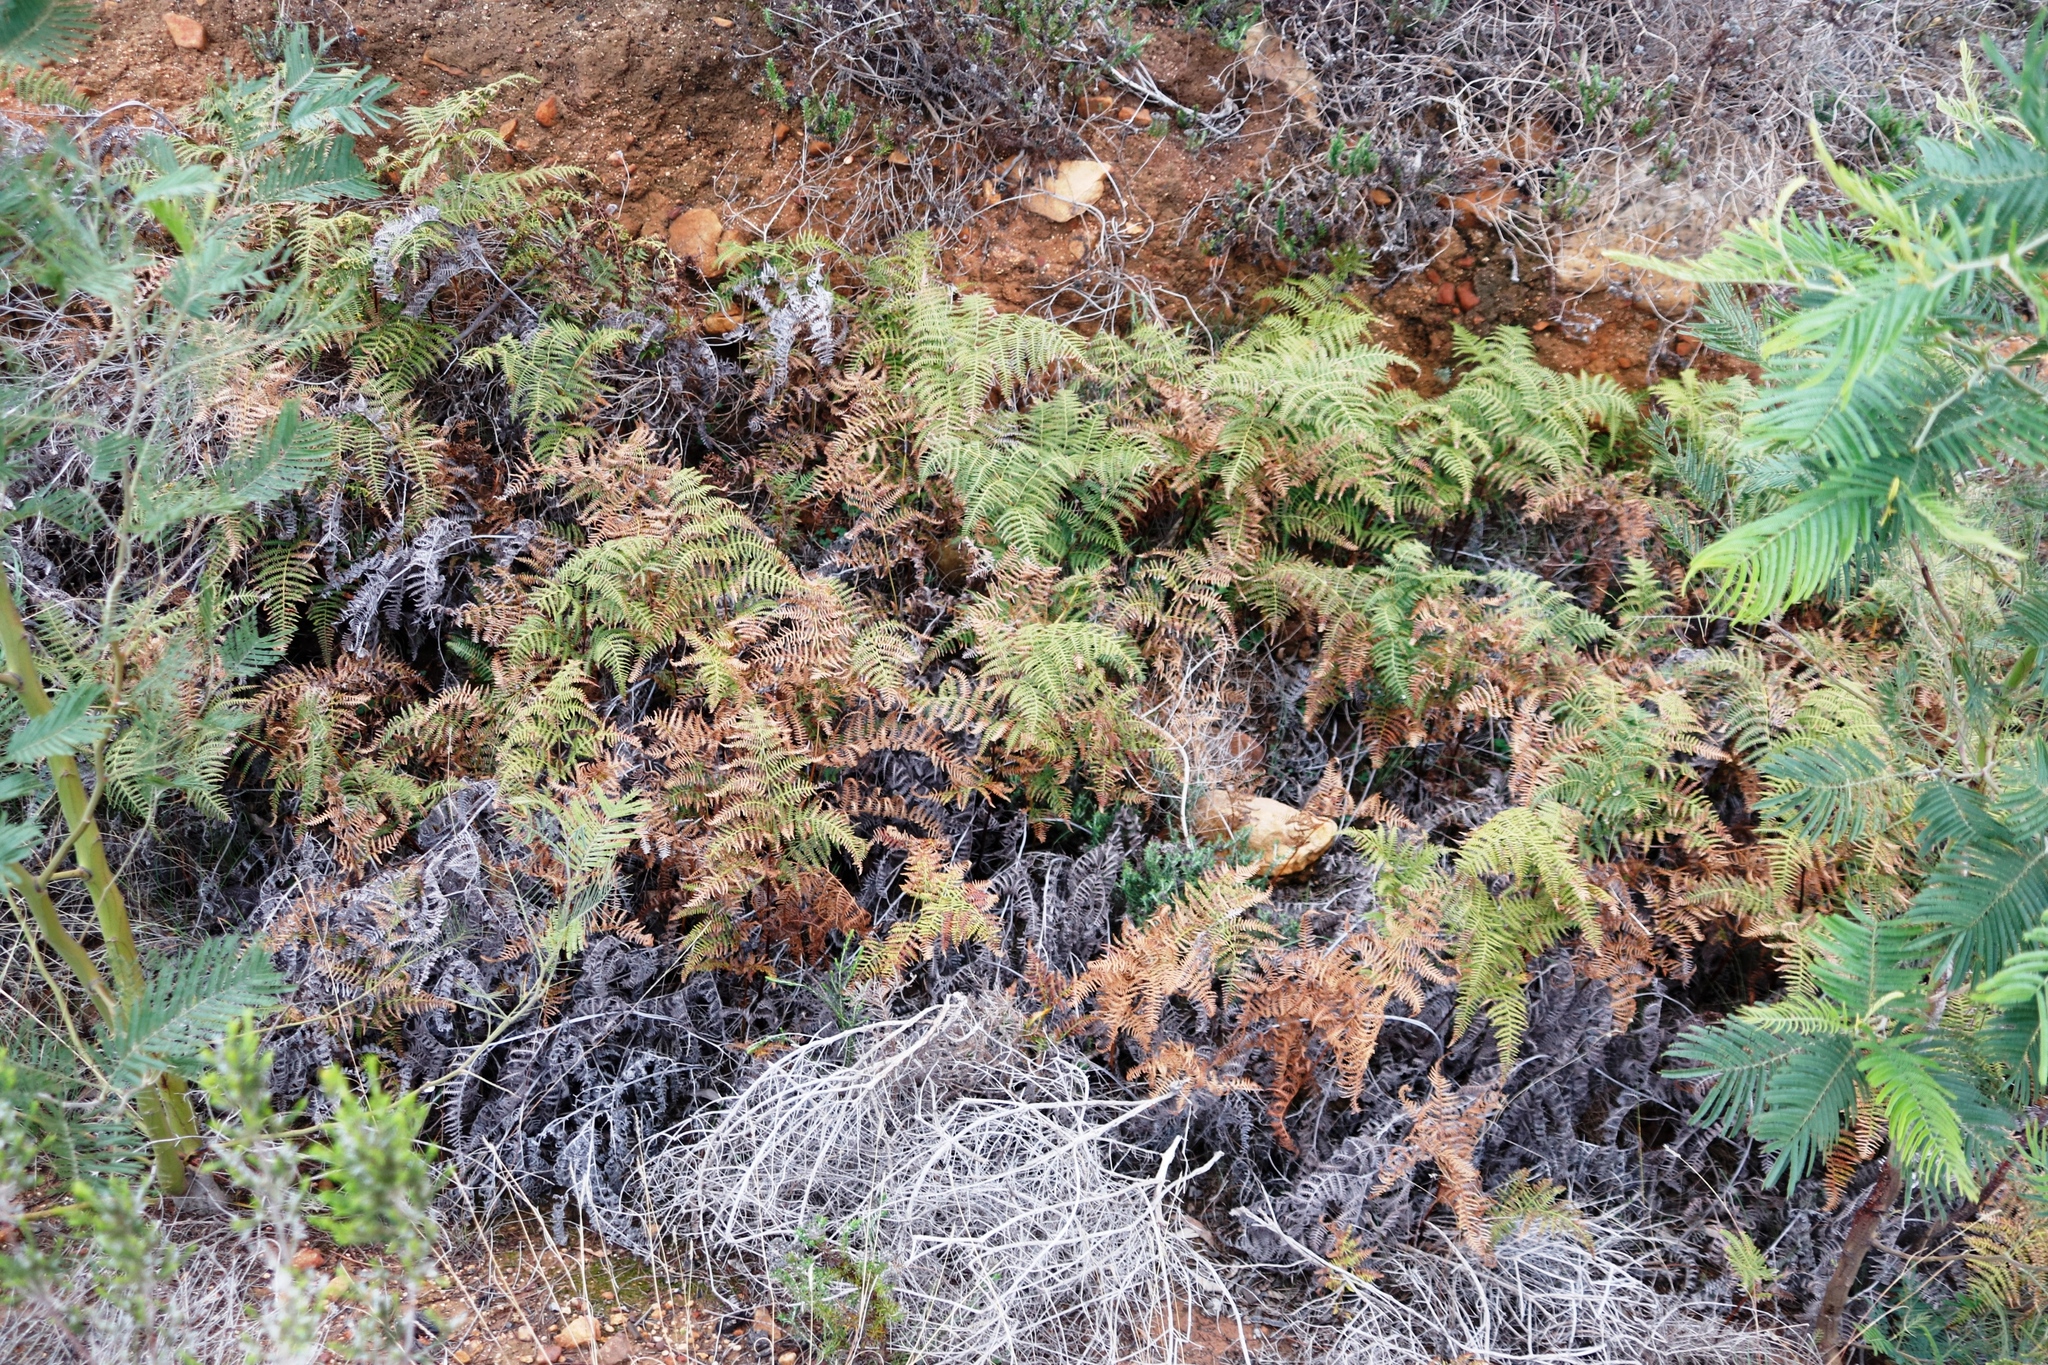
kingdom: Plantae
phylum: Tracheophyta
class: Polypodiopsida
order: Polypodiales
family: Dennstaedtiaceae
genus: Pteridium
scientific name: Pteridium aquilinum
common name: Bracken
